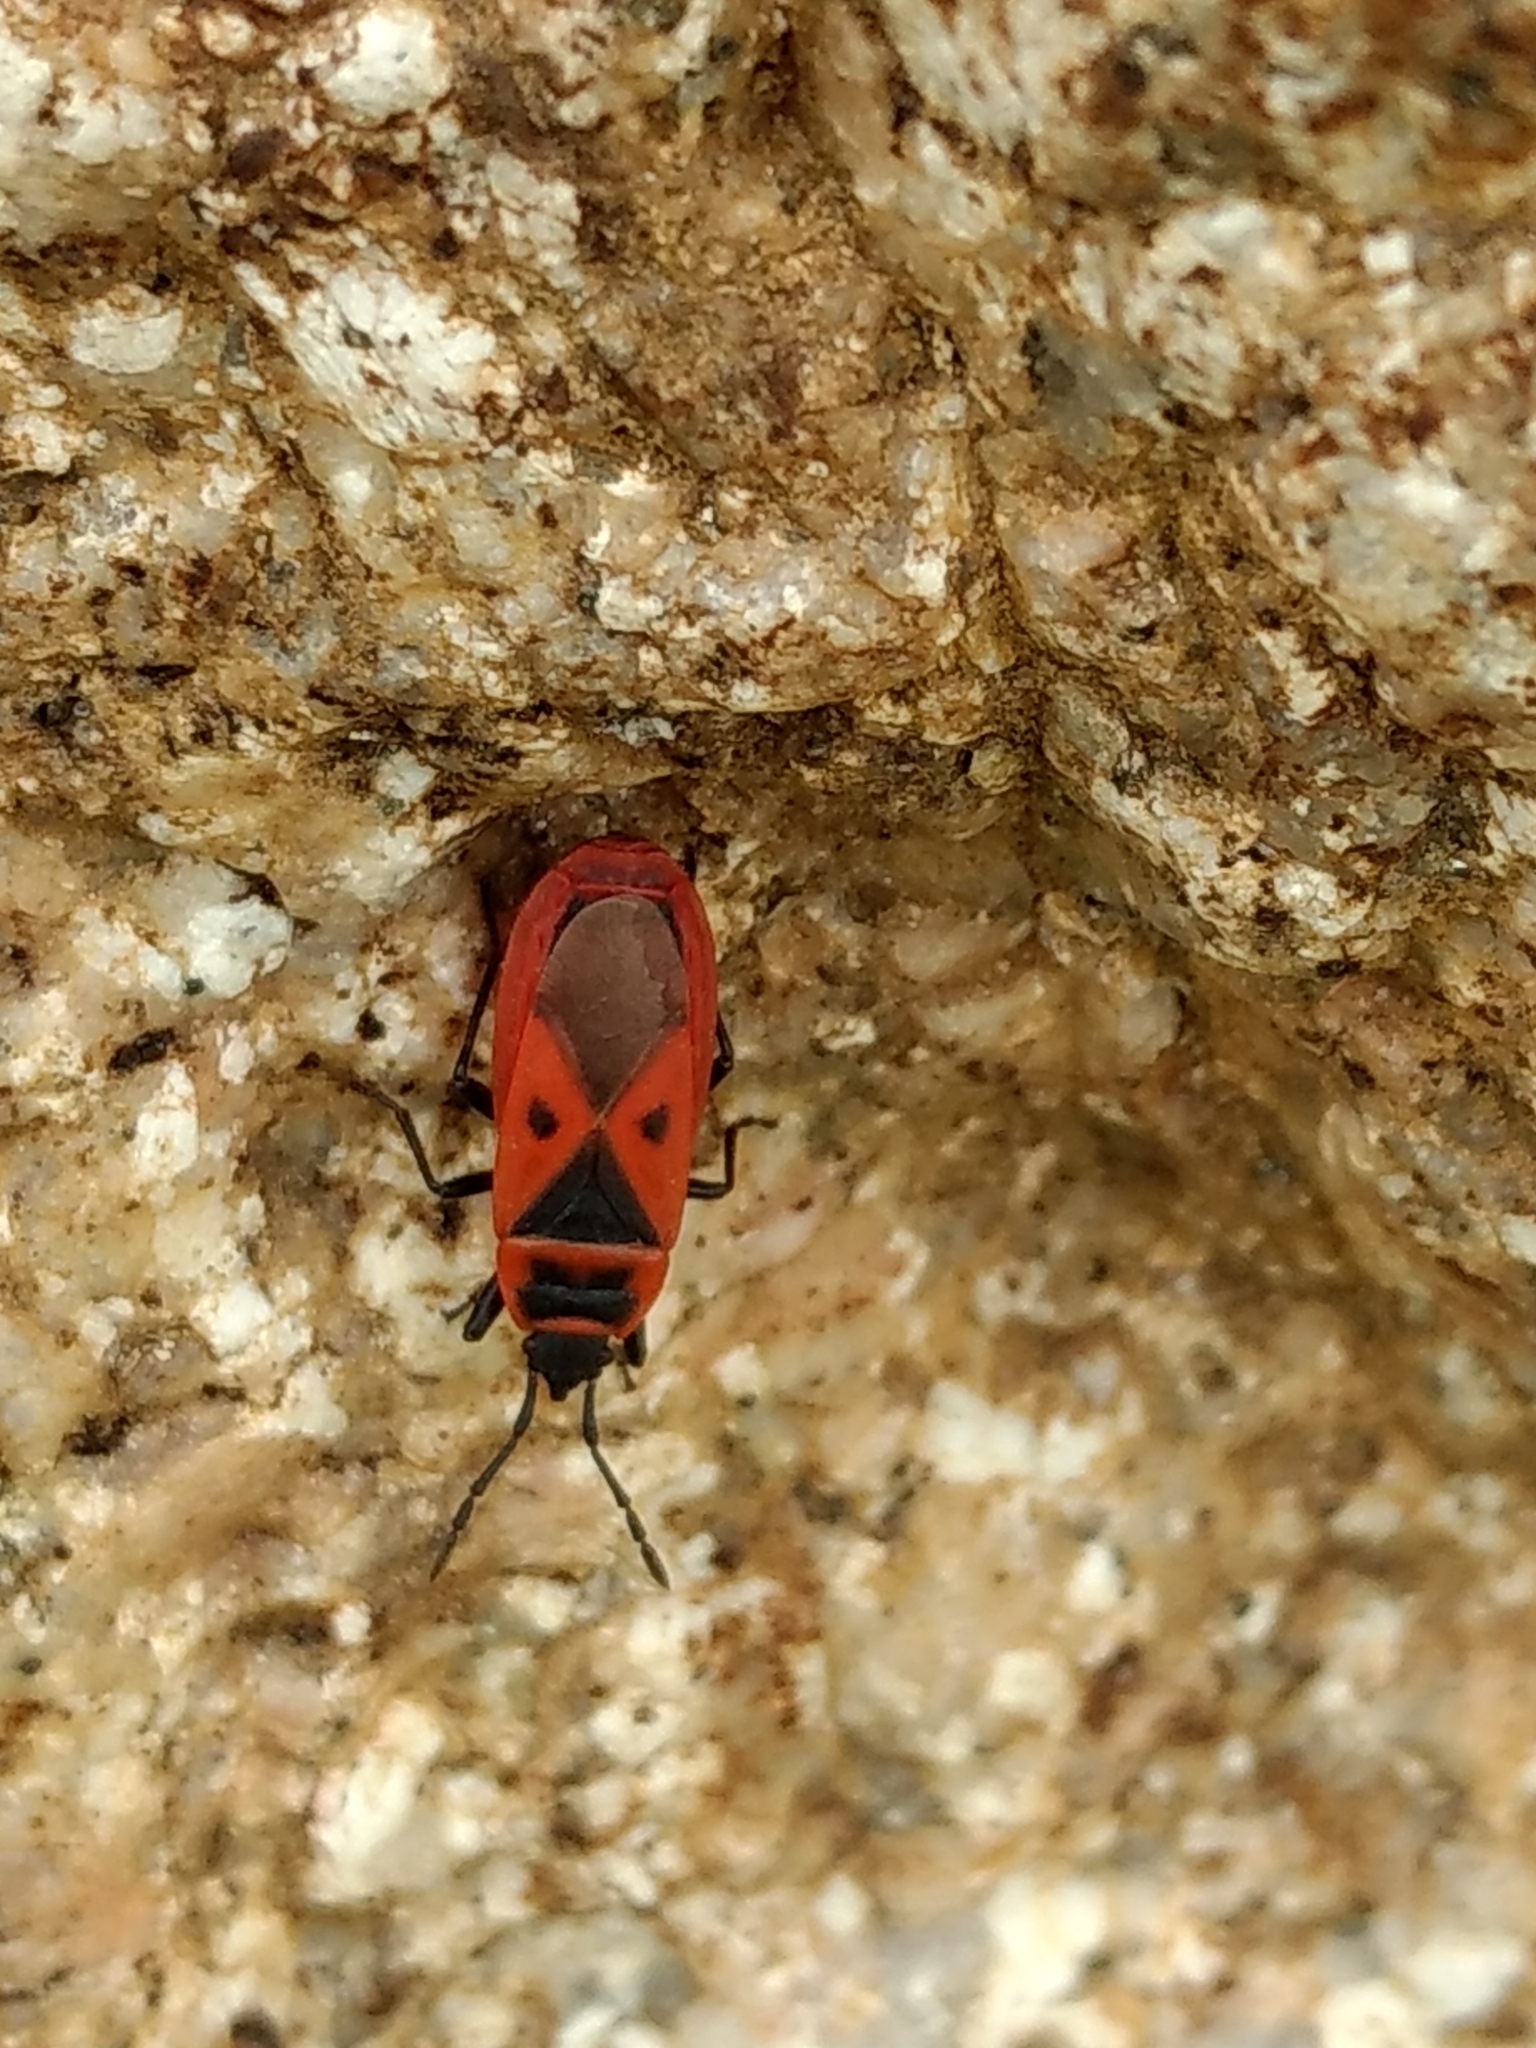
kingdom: Animalia
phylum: Arthropoda
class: Insecta
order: Hemiptera
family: Pyrrhocoridae
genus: Scantius
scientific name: Scantius aegyptius
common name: Red bug
